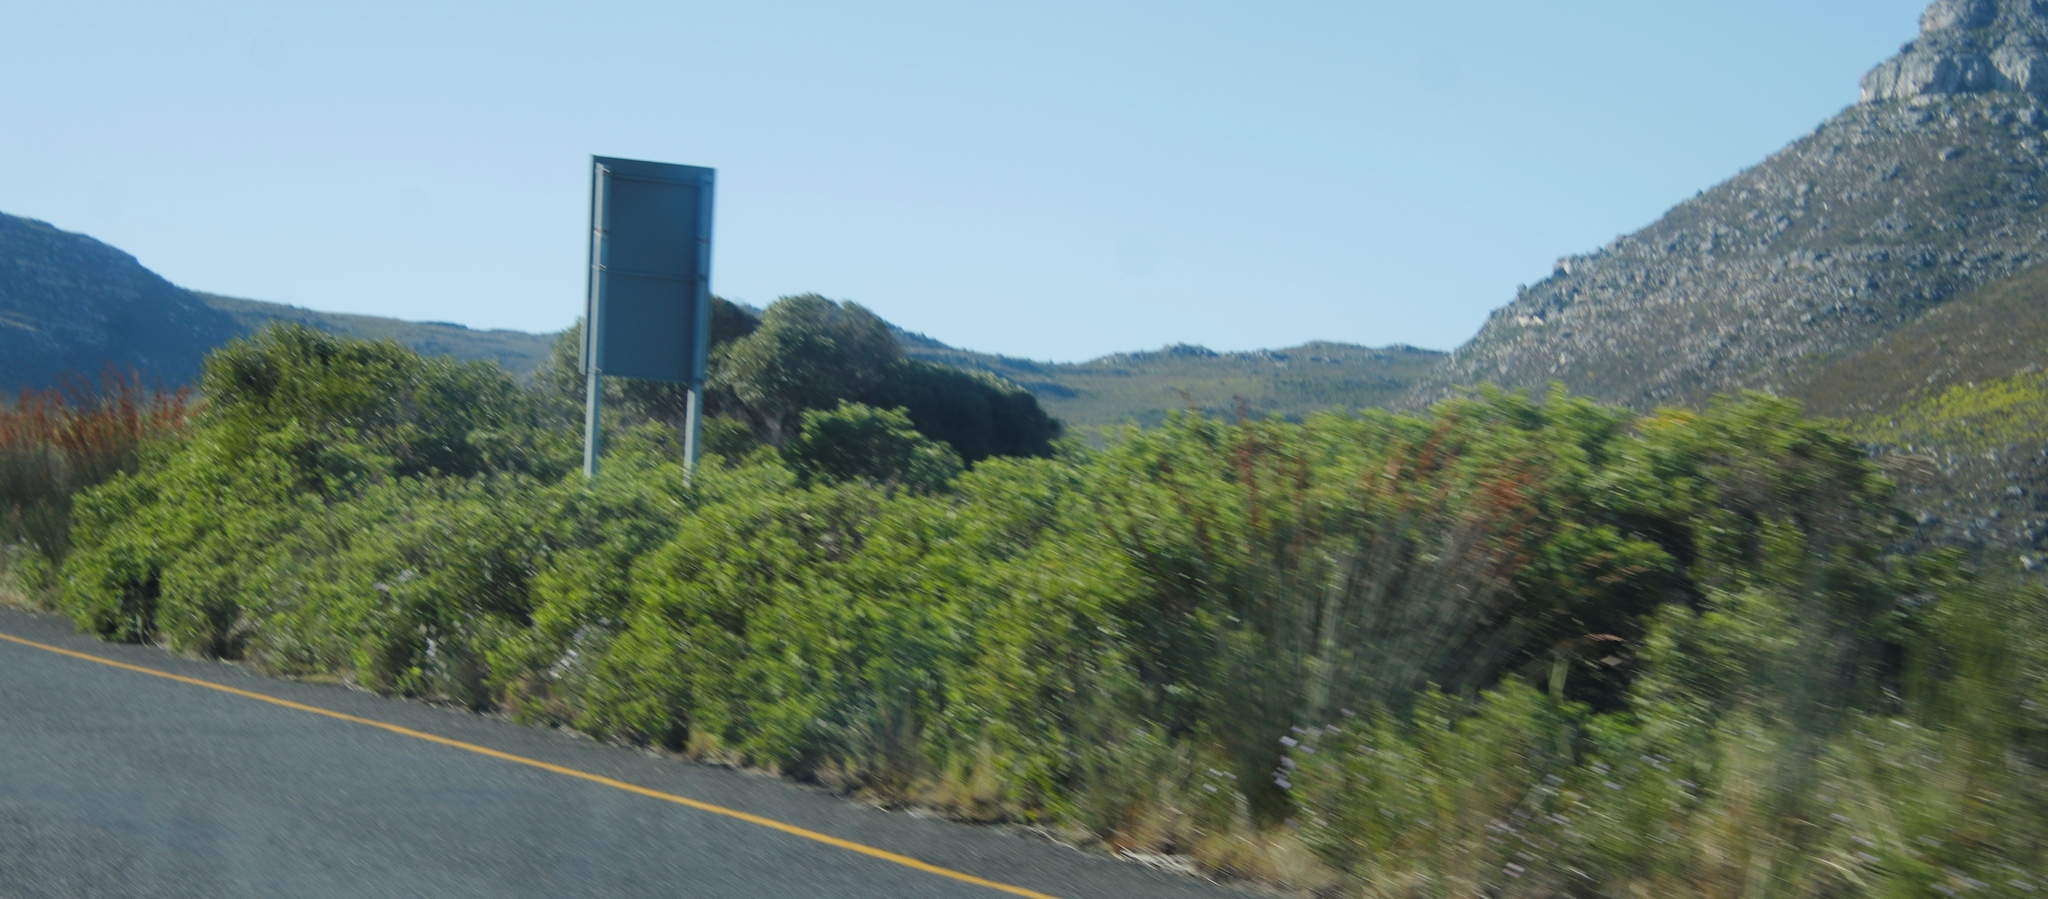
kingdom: Plantae
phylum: Tracheophyta
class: Liliopsida
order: Poales
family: Restionaceae
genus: Thamnochortus
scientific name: Thamnochortus insignis
